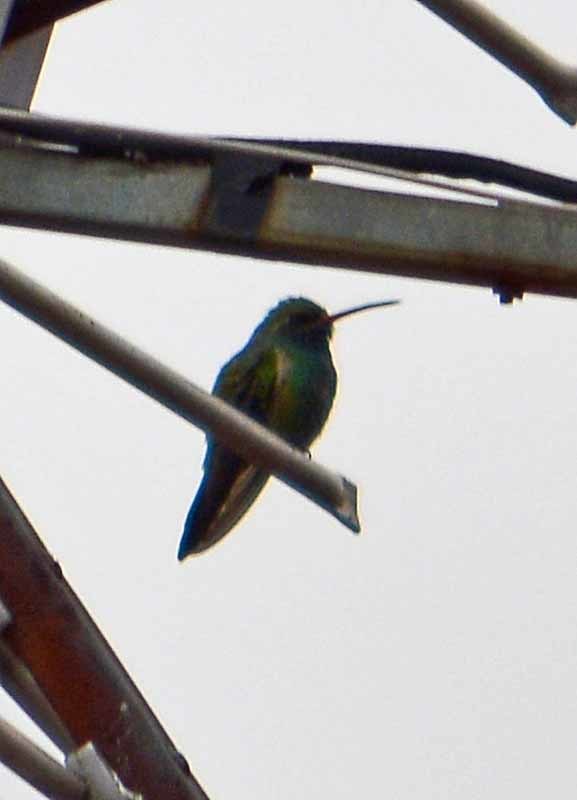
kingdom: Animalia
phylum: Chordata
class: Aves
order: Apodiformes
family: Trochilidae
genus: Saucerottia
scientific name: Saucerottia beryllina
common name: Berylline hummingbird
